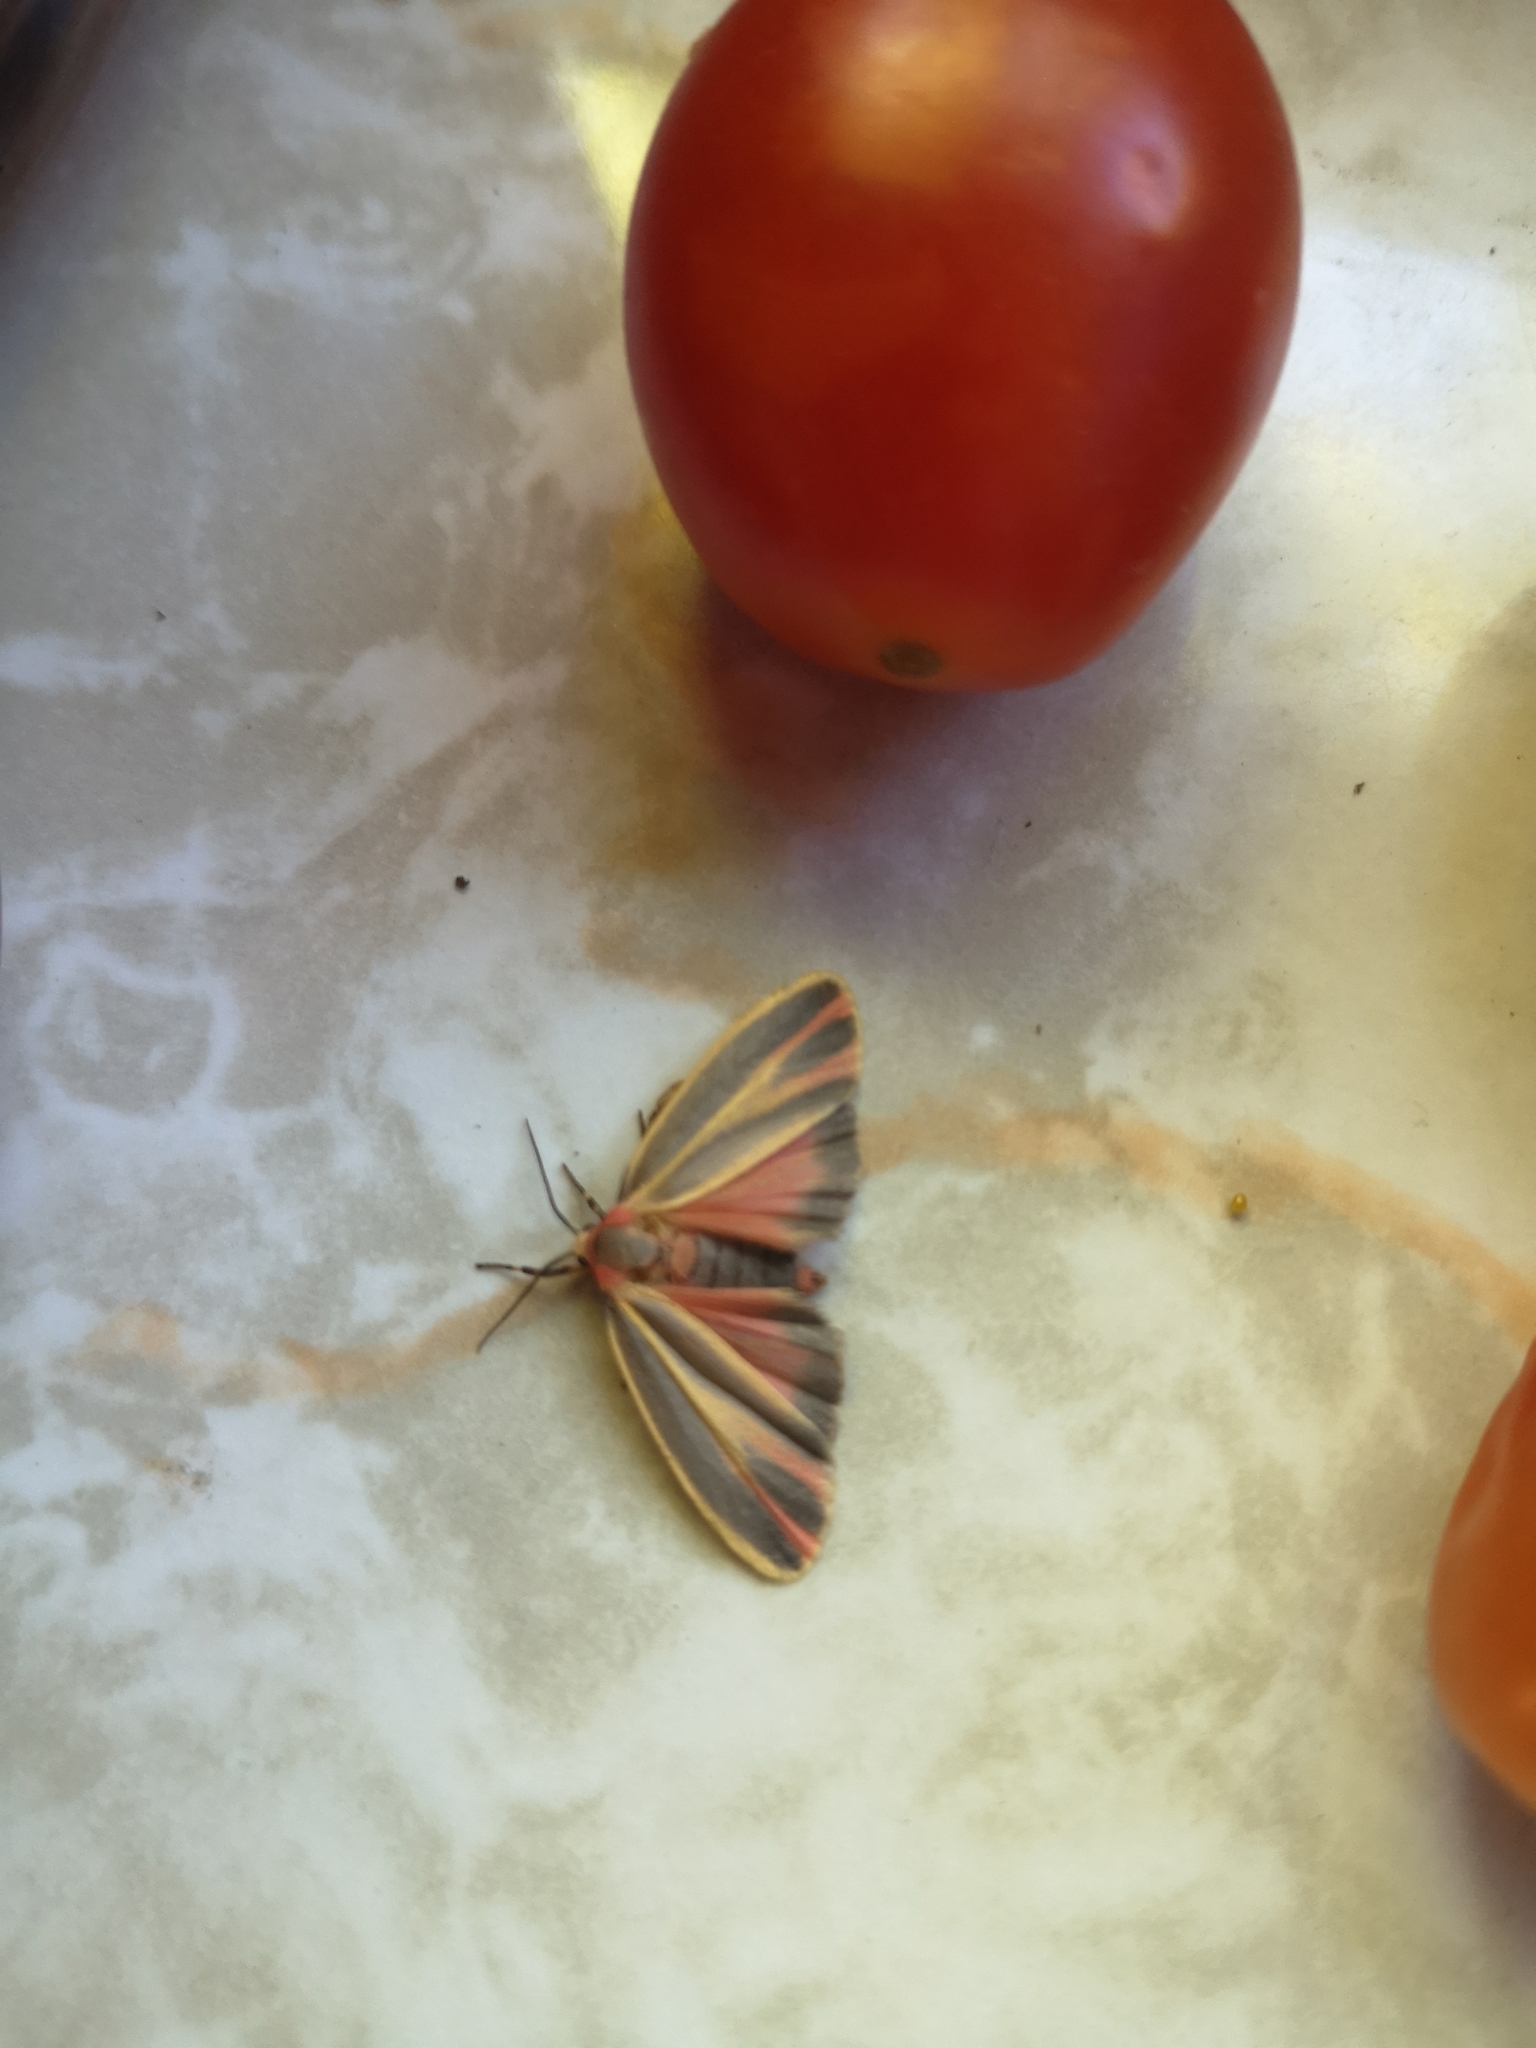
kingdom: Animalia
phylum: Arthropoda
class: Insecta
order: Lepidoptera
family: Erebidae
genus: Hypoprepia
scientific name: Hypoprepia fucosa
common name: Painted lichen moth
